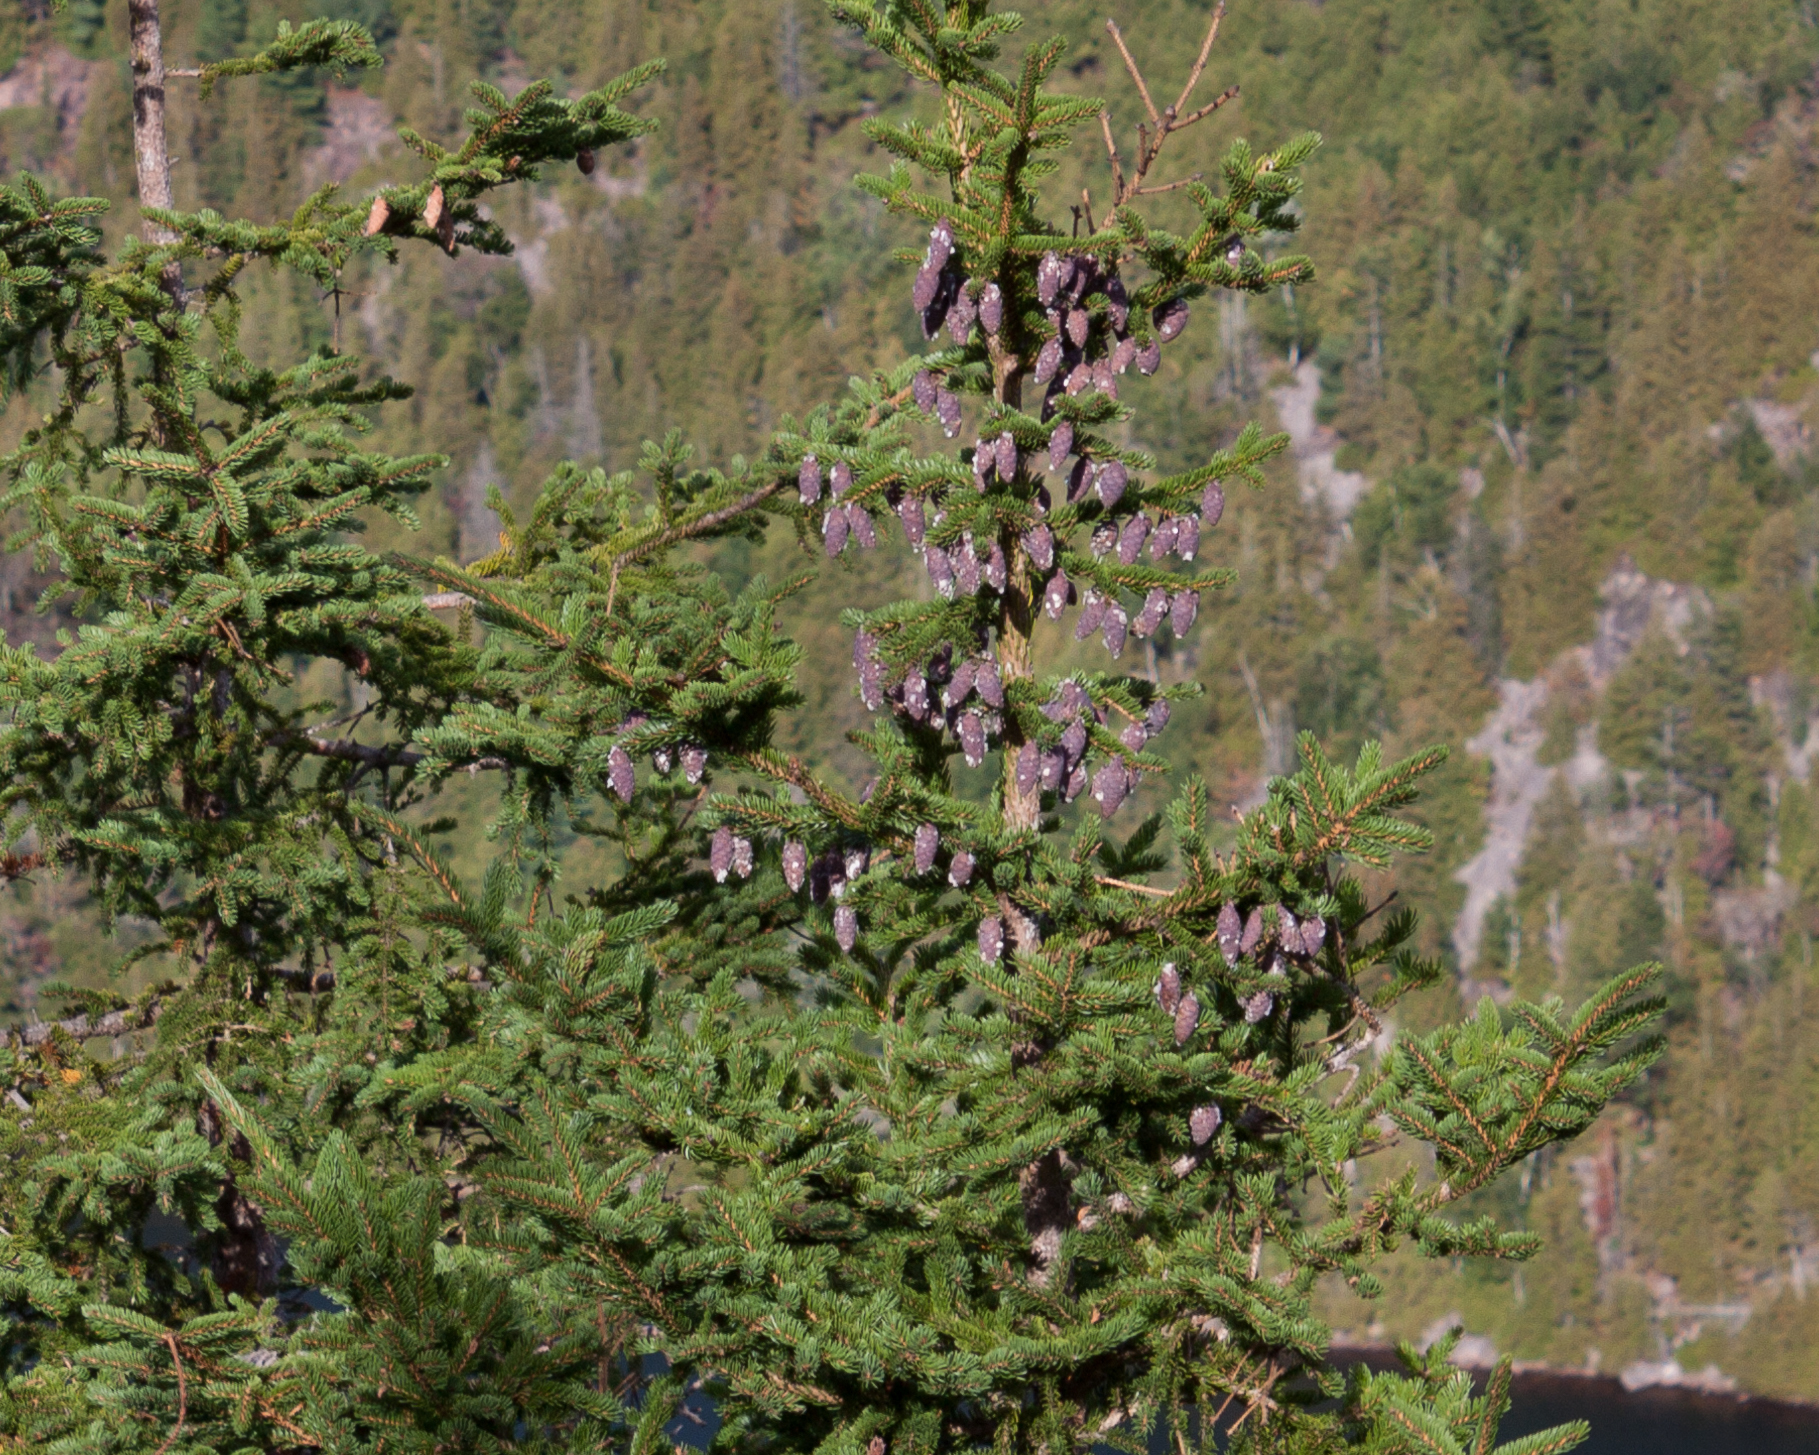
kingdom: Plantae
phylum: Tracheophyta
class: Pinopsida
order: Pinales
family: Pinaceae
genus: Picea
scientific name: Picea mariana
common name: Black spruce
